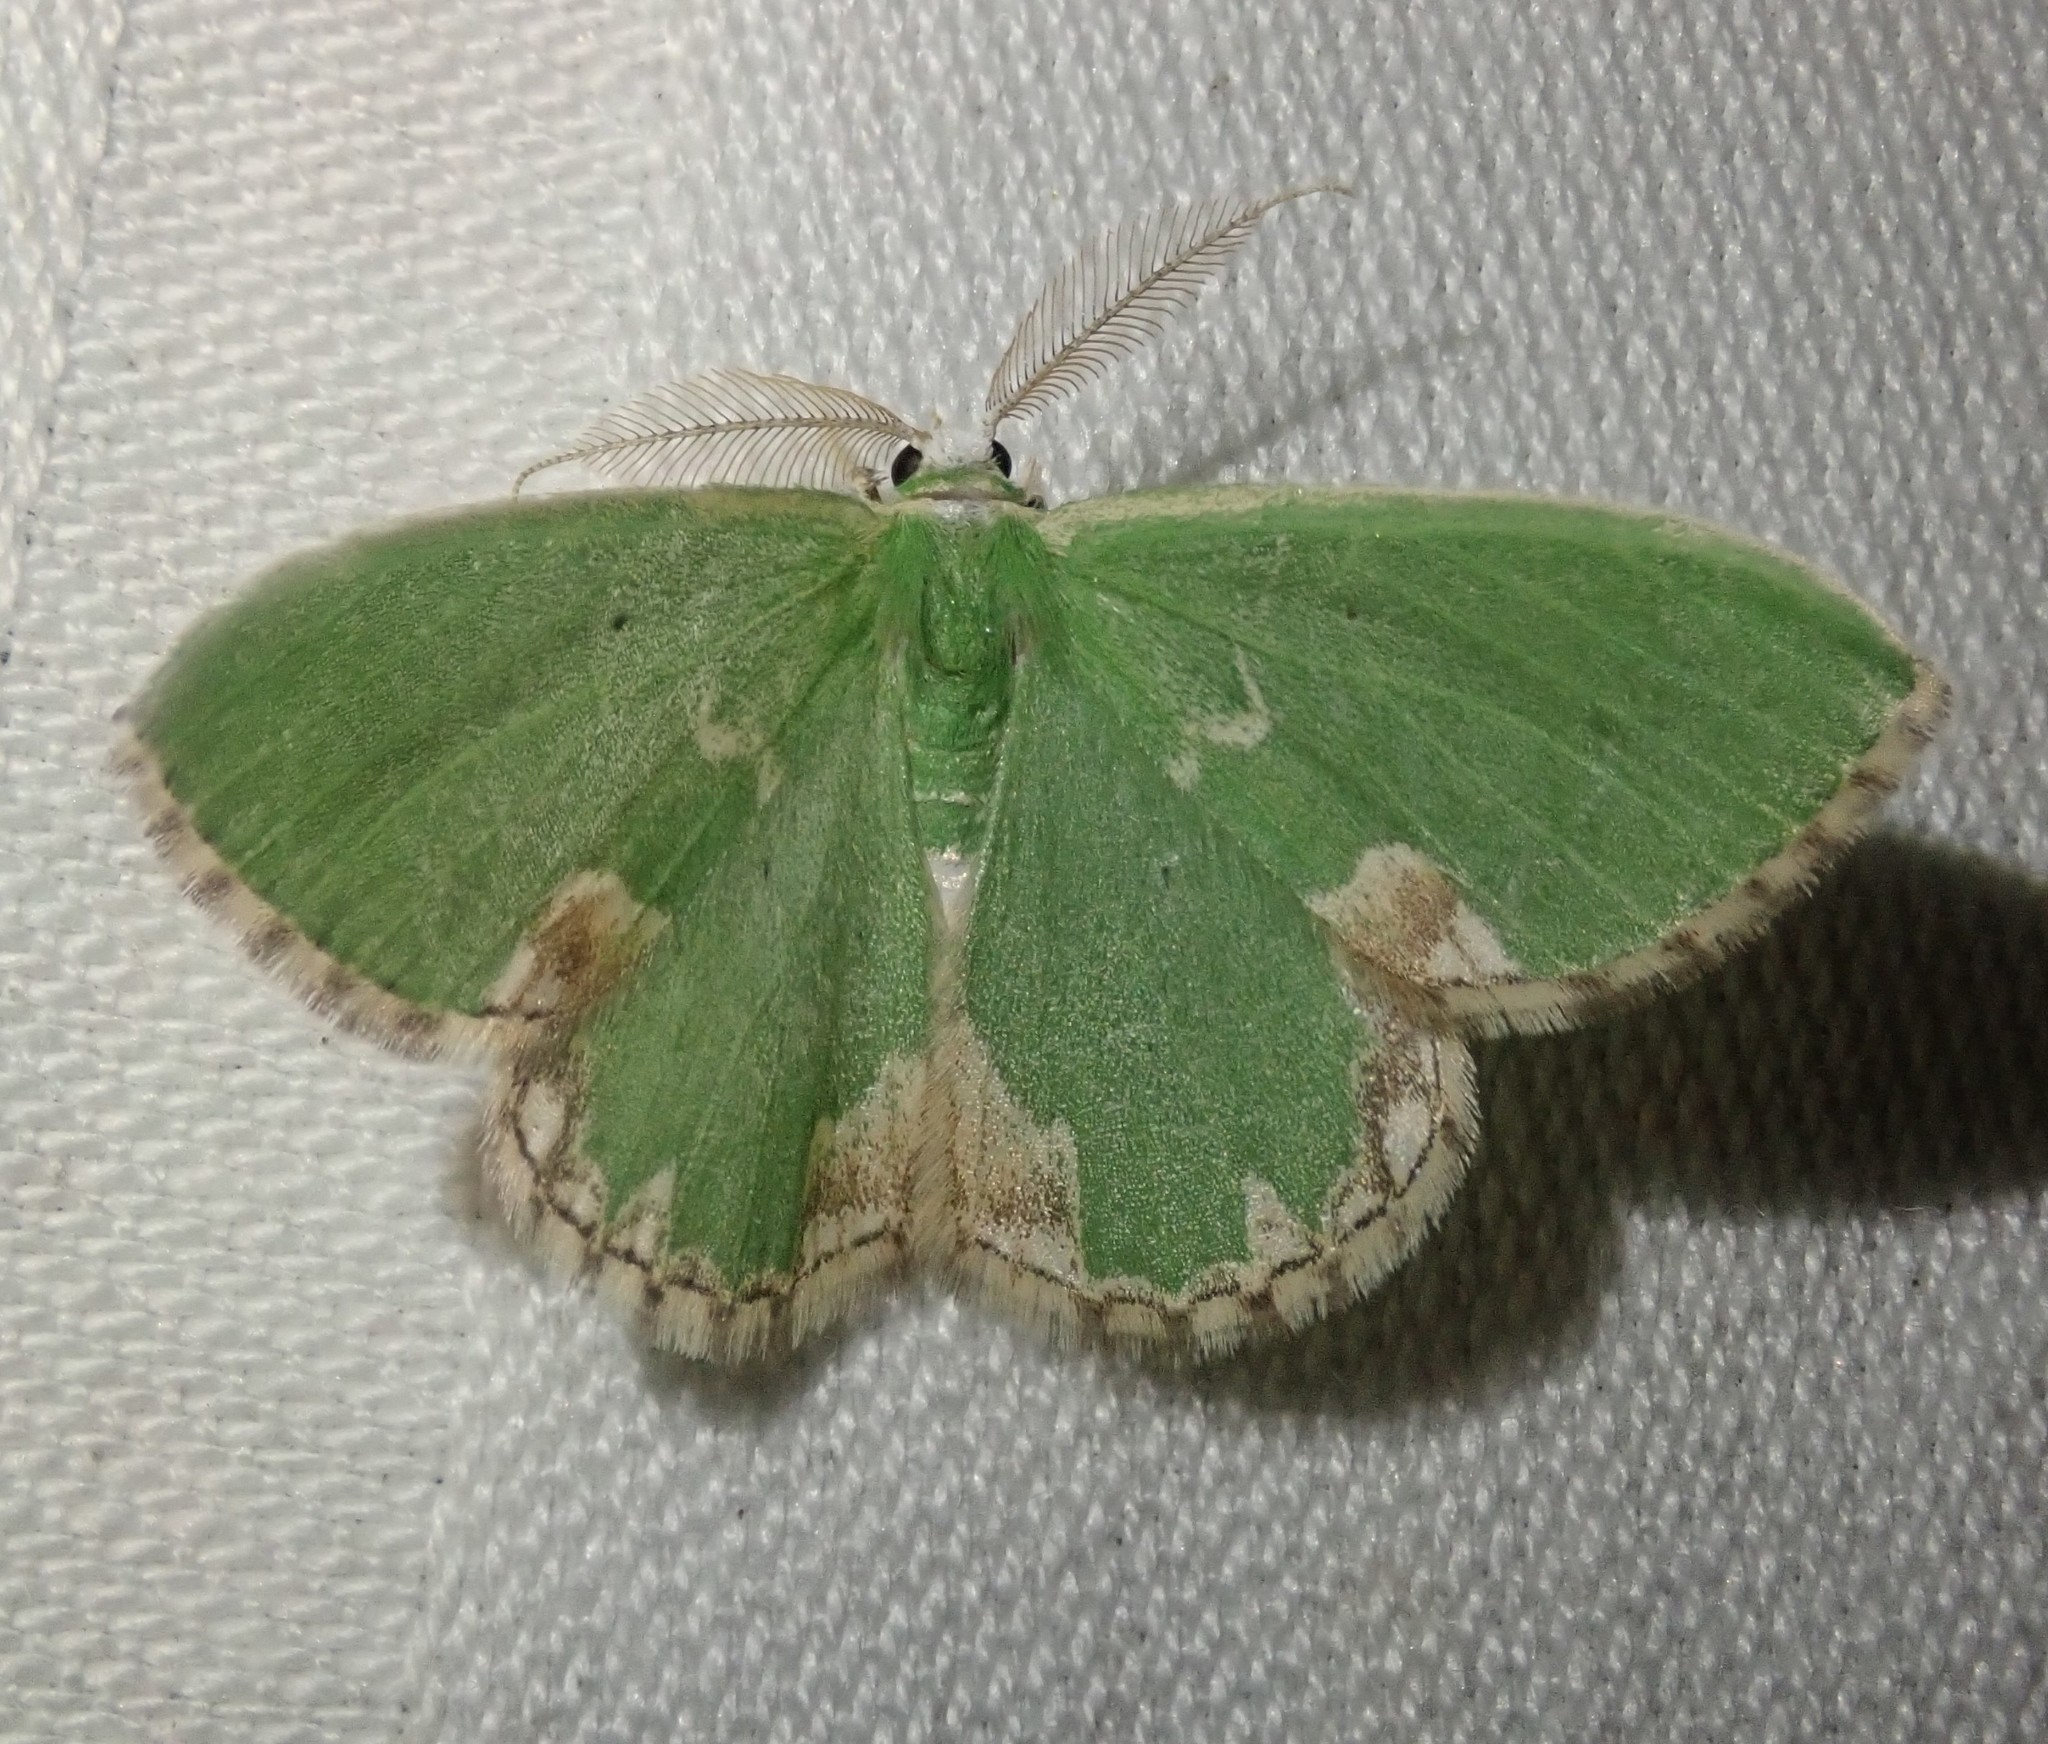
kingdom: Animalia
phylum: Arthropoda
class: Insecta
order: Lepidoptera
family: Geometridae
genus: Comibaena
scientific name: Comibaena bajularia
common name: Blotched emerald
